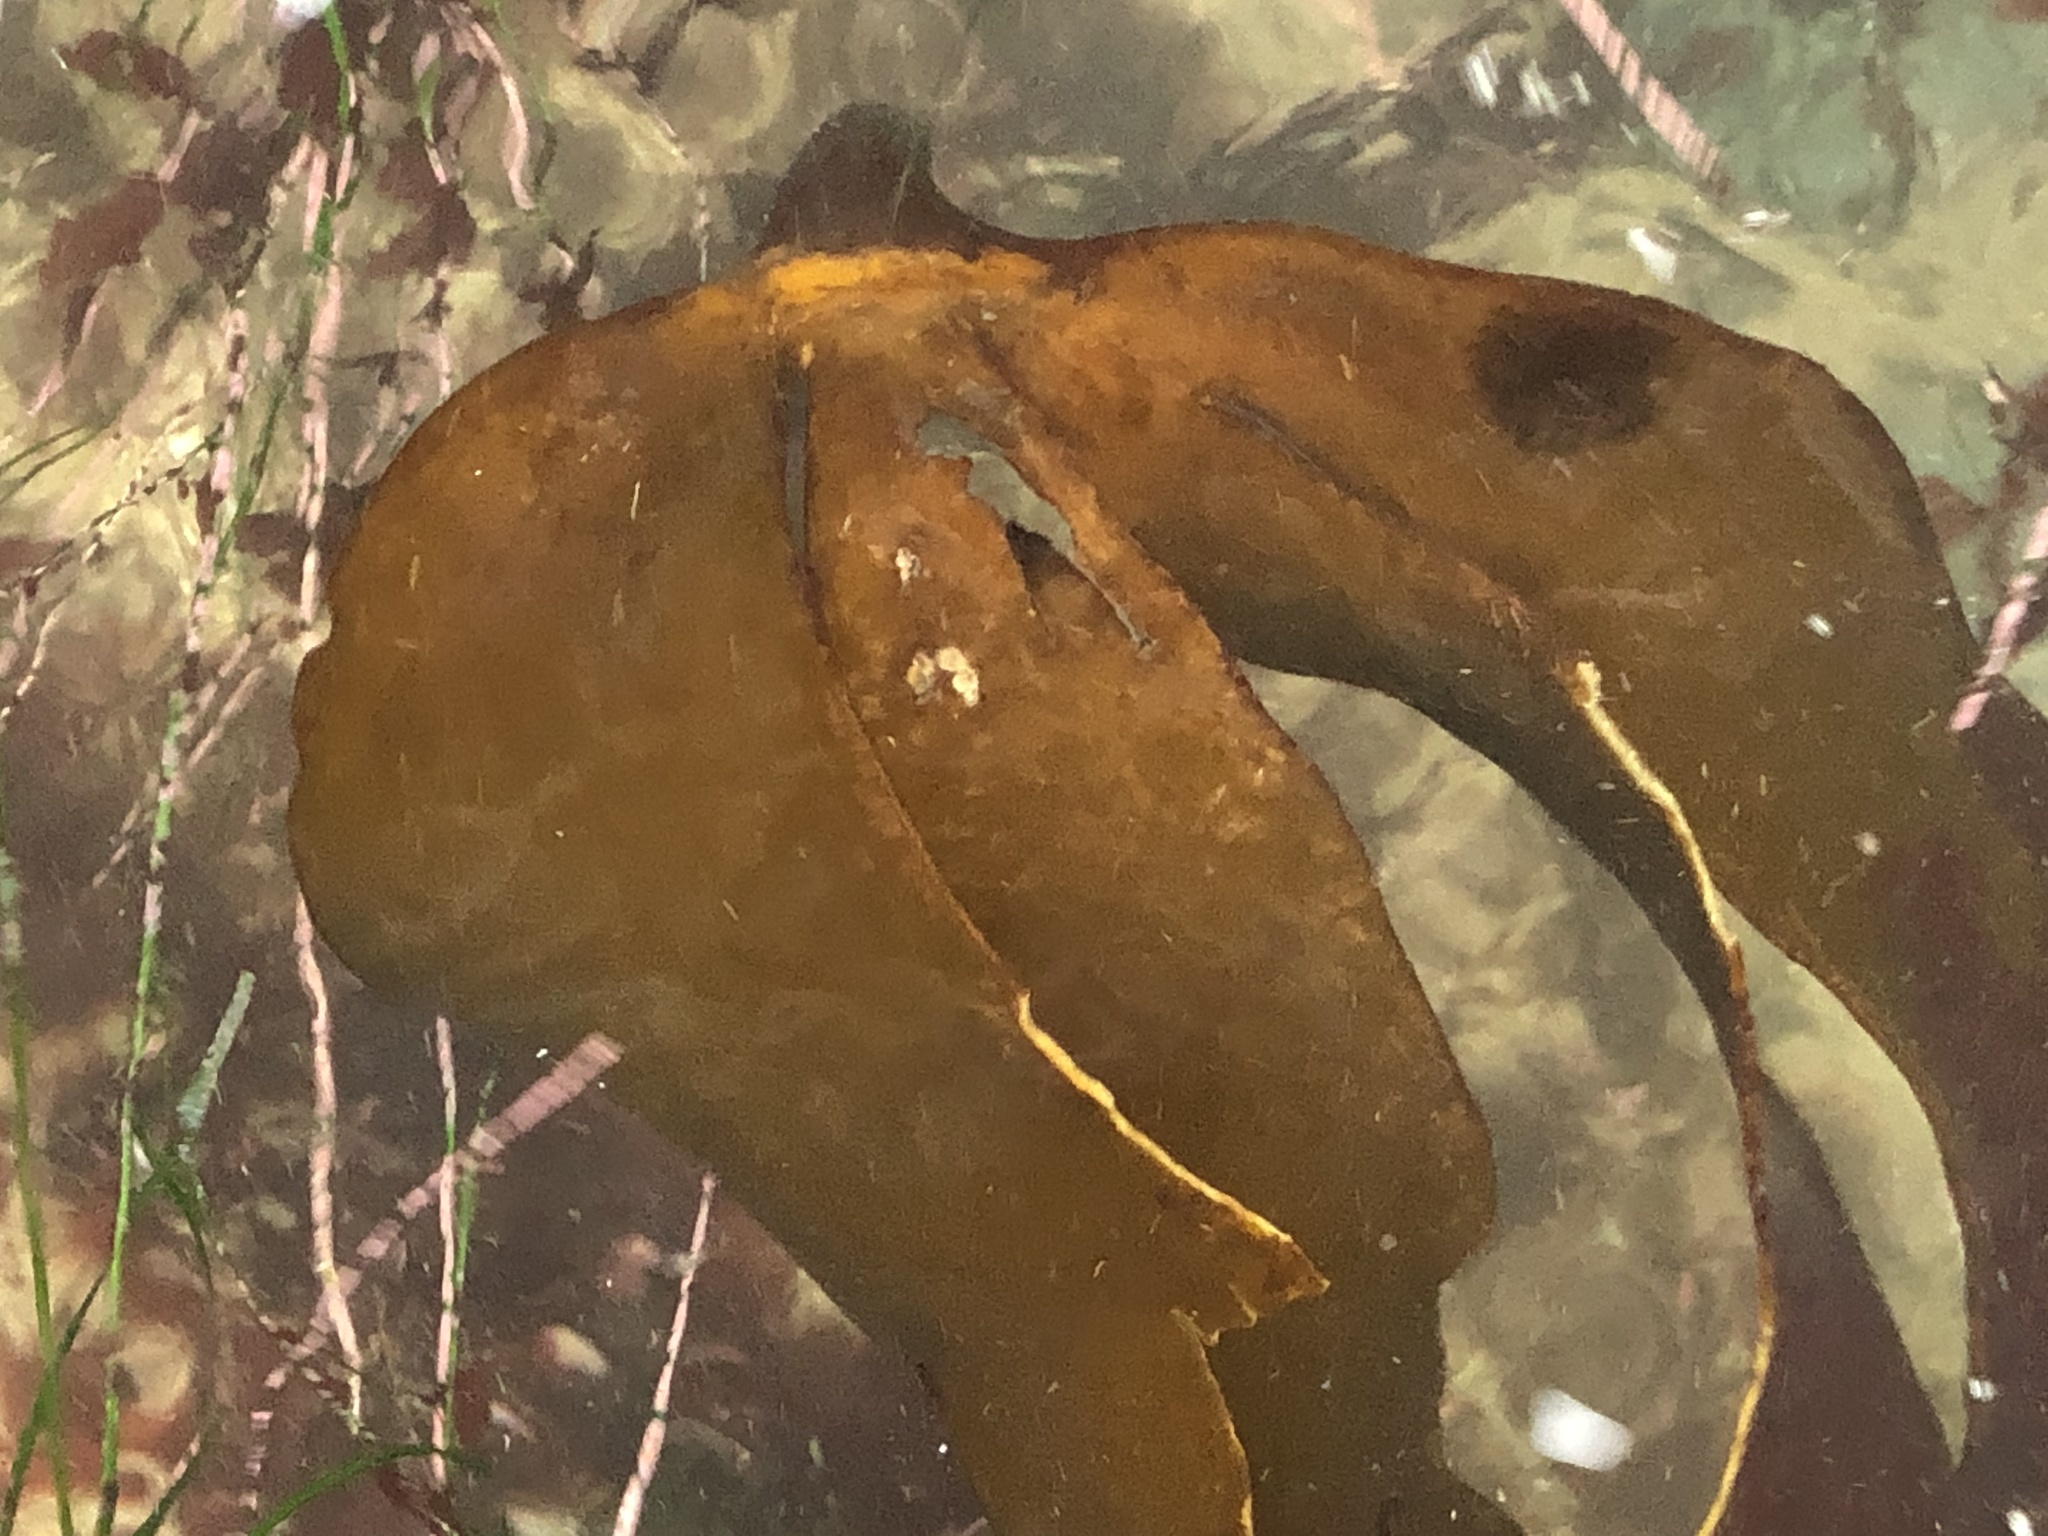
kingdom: Chromista
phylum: Ochrophyta
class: Phaeophyceae
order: Laminariales
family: Laminariaceae
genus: Laminaria
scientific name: Laminaria setchellii
